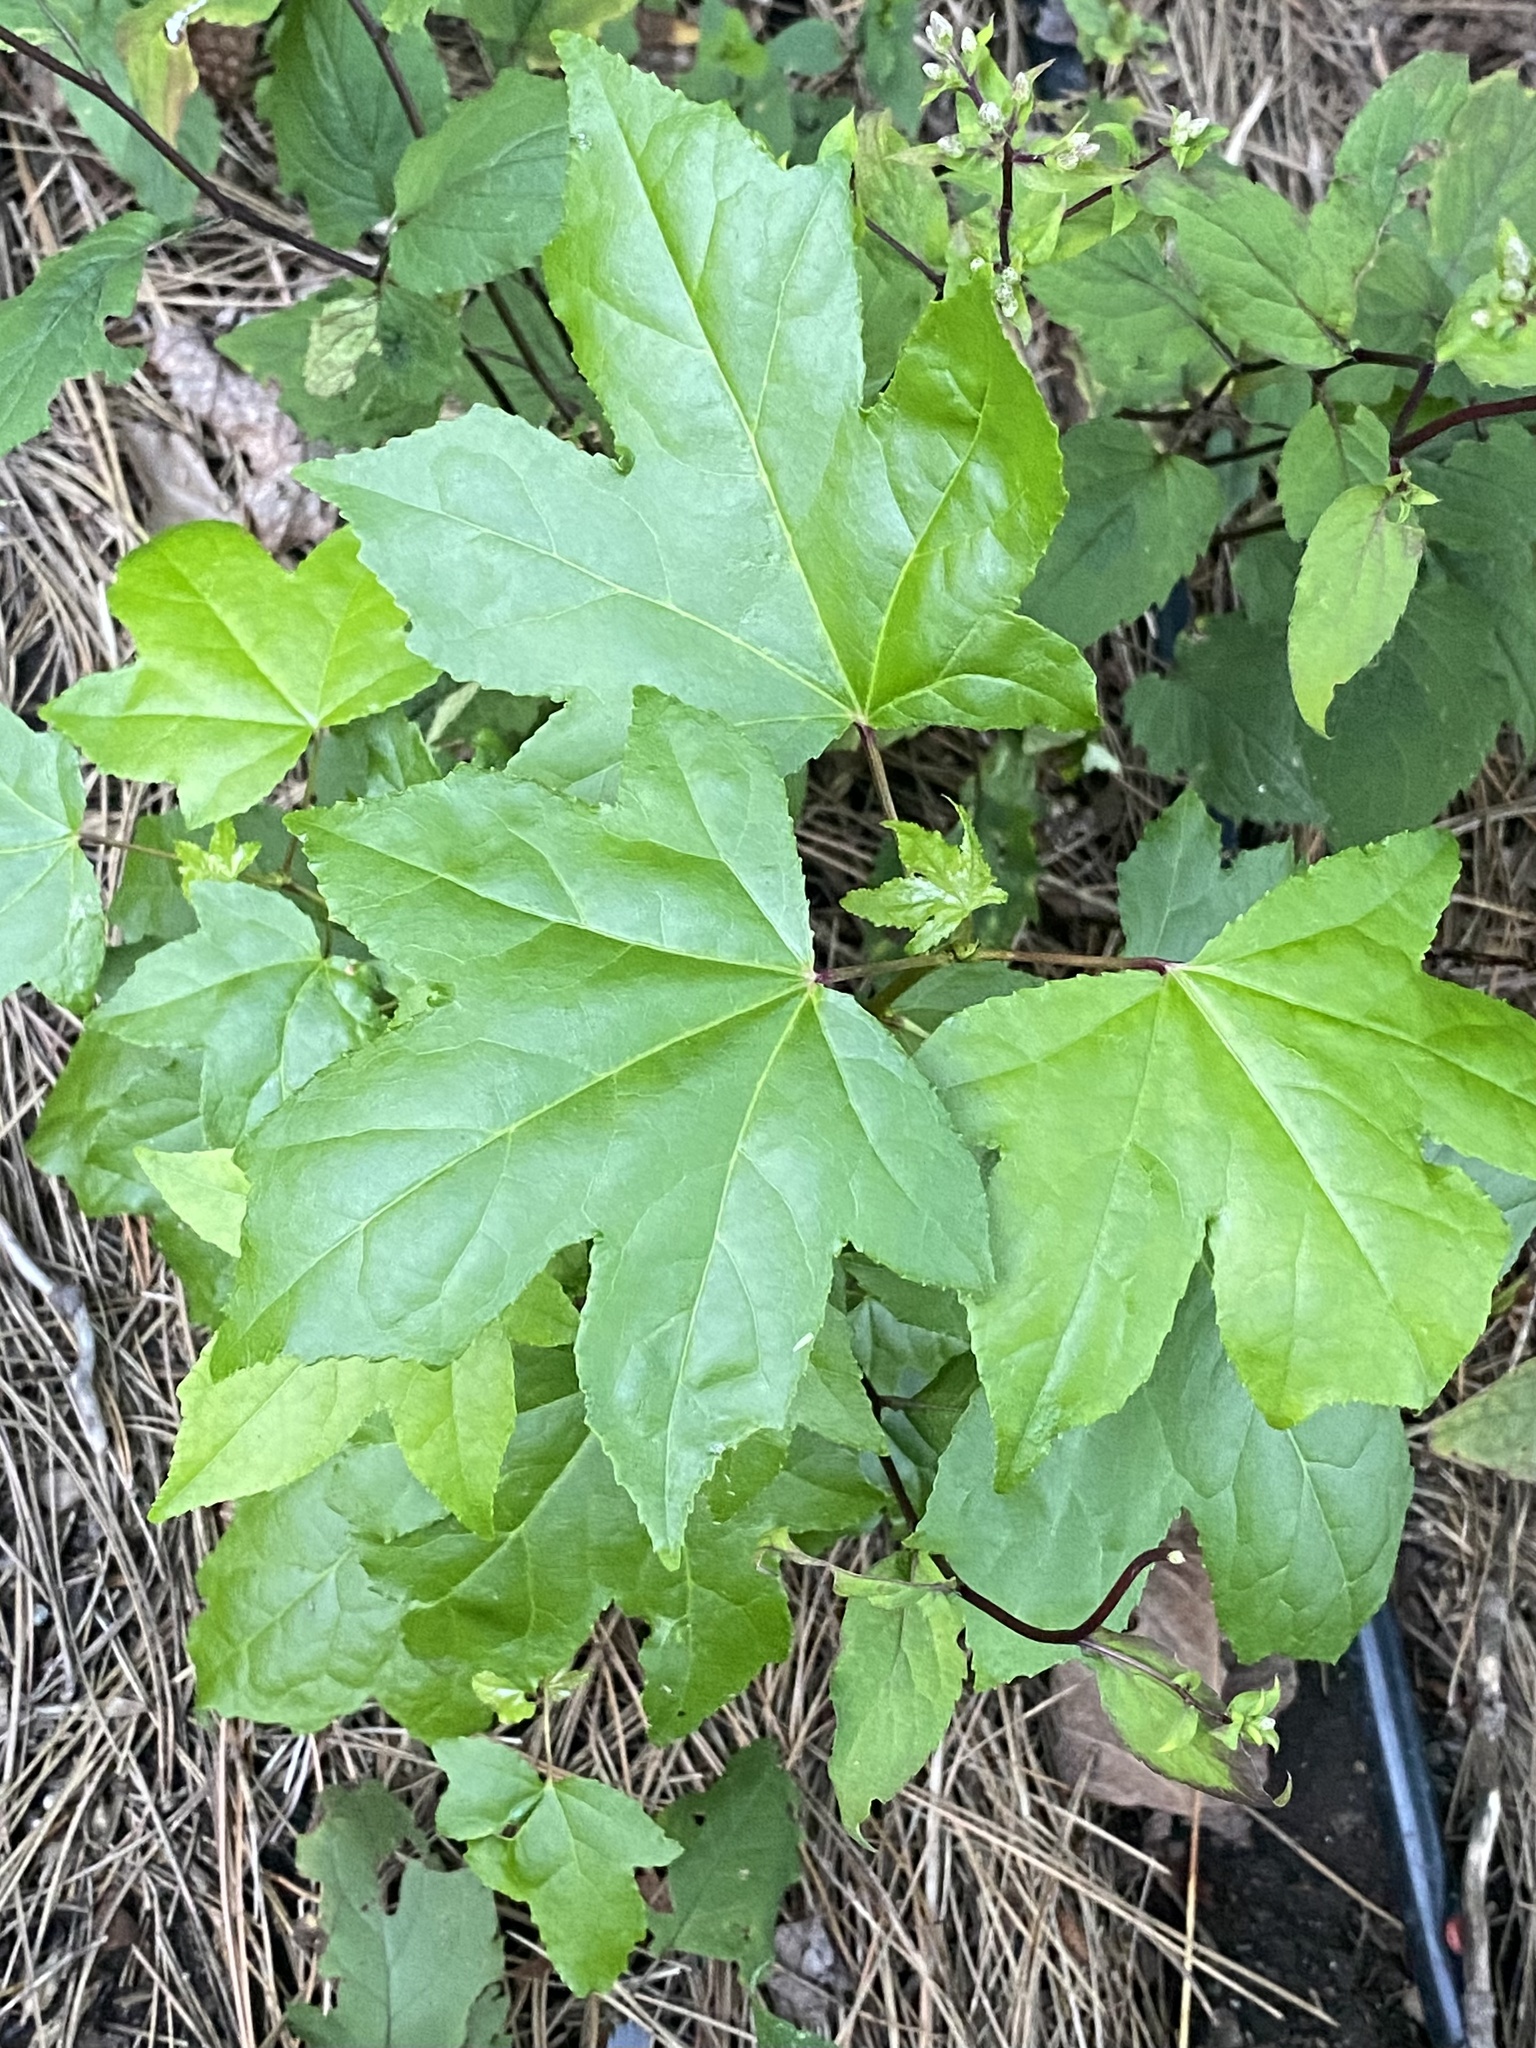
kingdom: Plantae
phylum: Tracheophyta
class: Magnoliopsida
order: Saxifragales
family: Altingiaceae
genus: Liquidambar
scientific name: Liquidambar styraciflua
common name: Sweet gum
